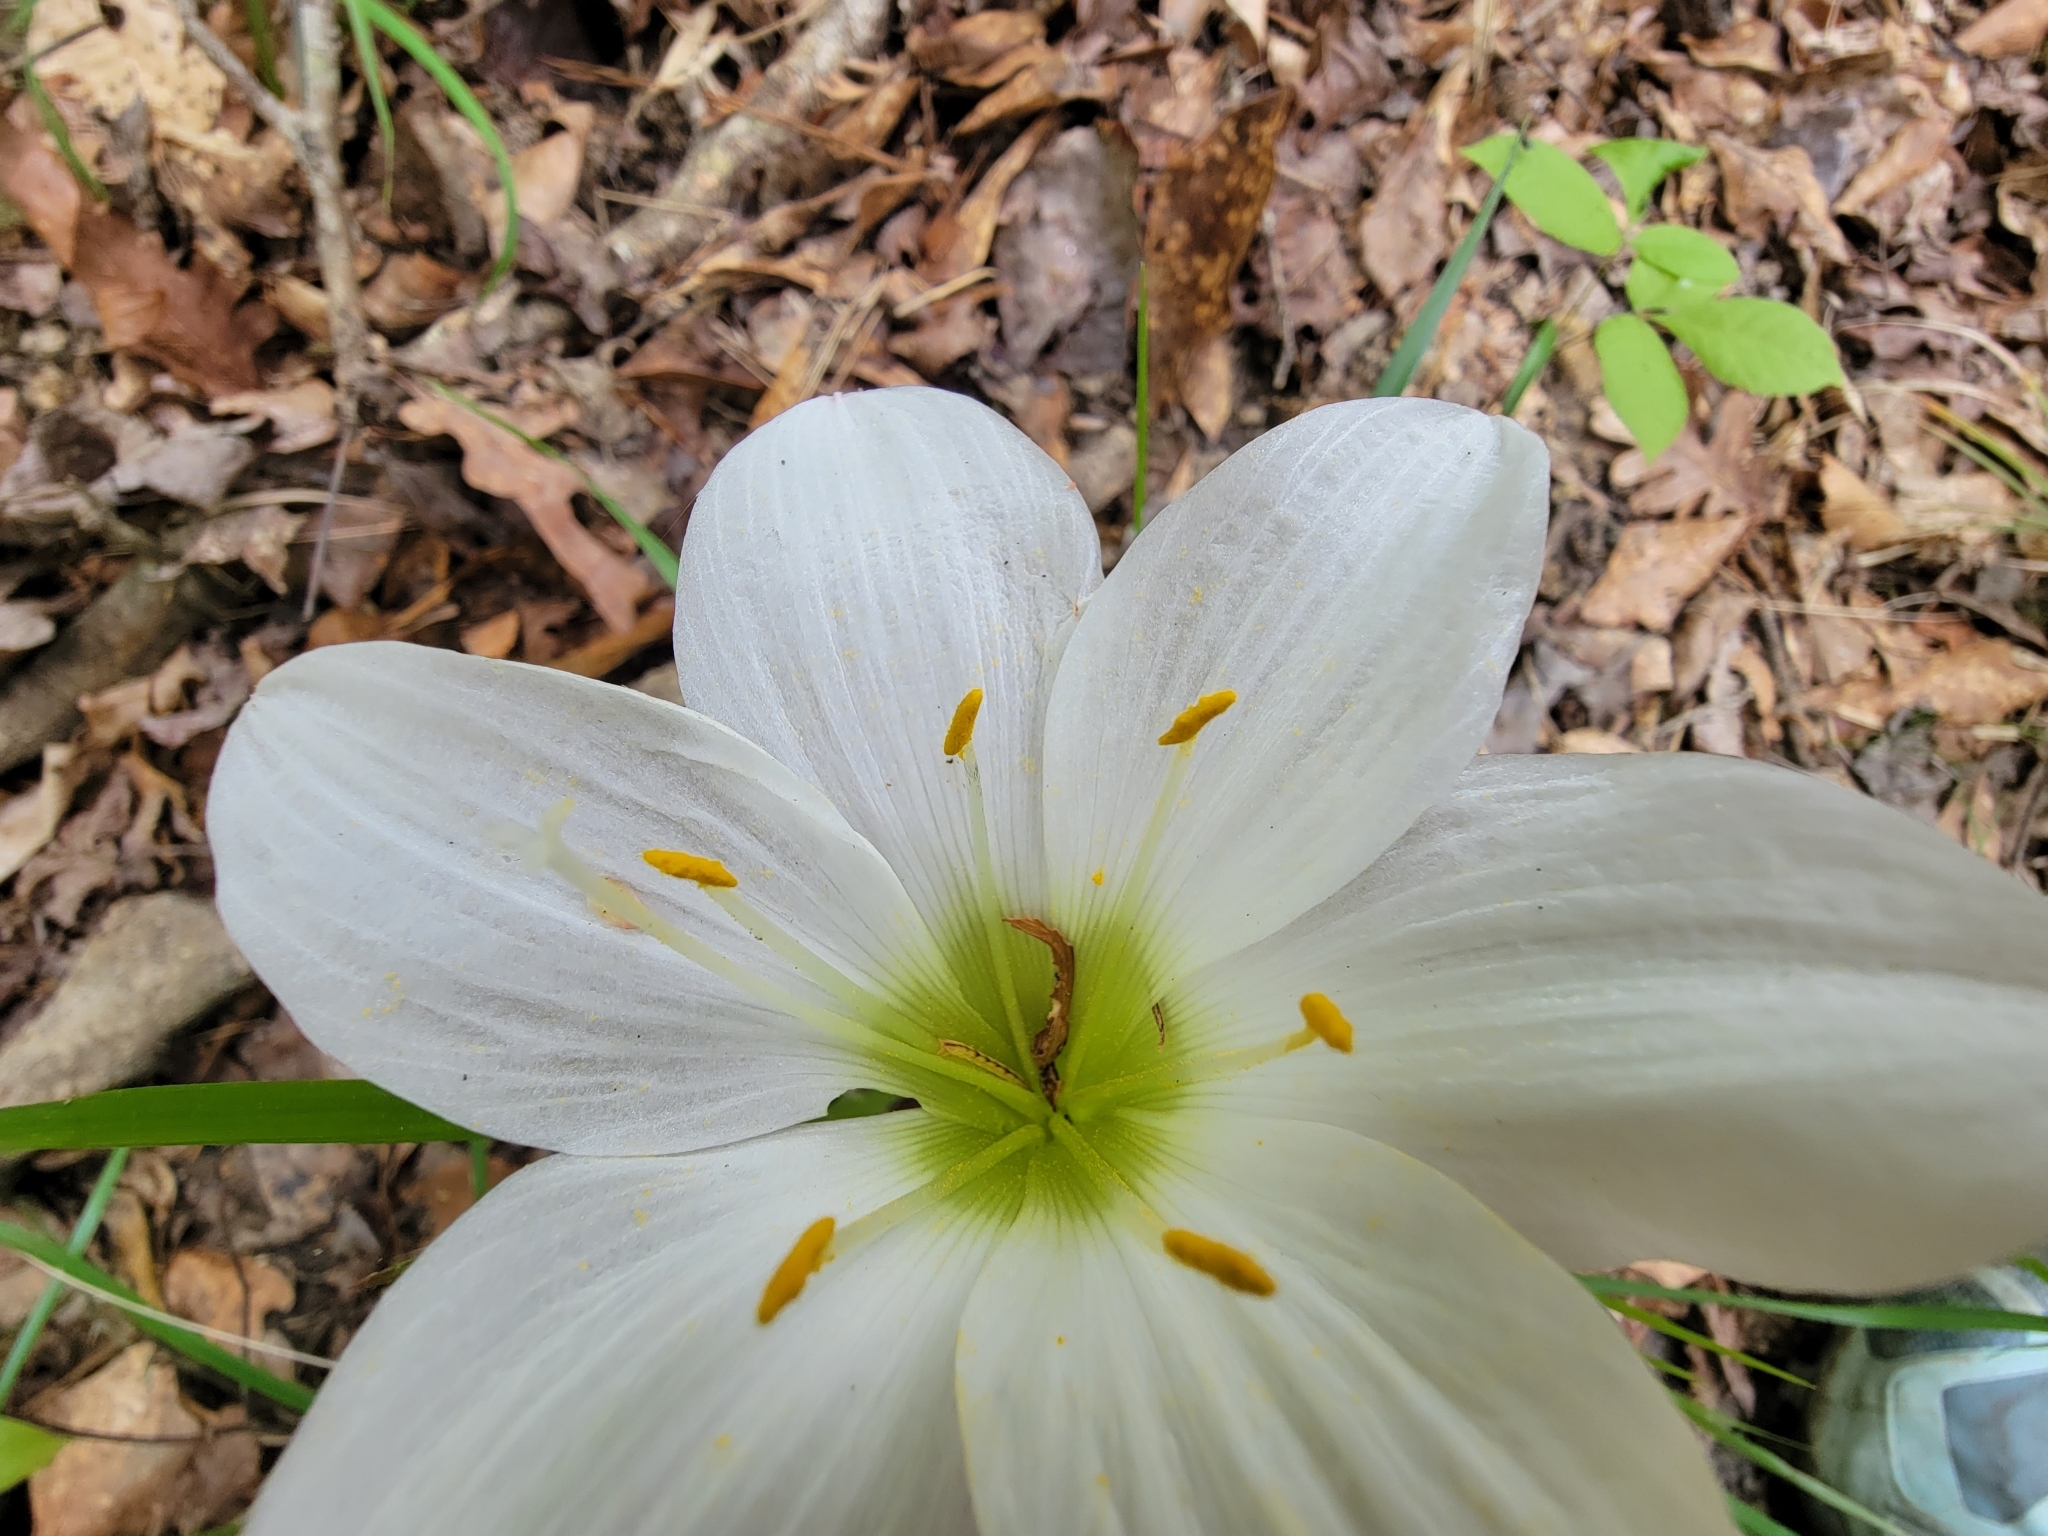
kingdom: Plantae
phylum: Tracheophyta
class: Liliopsida
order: Asparagales
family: Amaryllidaceae
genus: Zephyranthes
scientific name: Zephyranthes atamasco
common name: Atamasco lily
